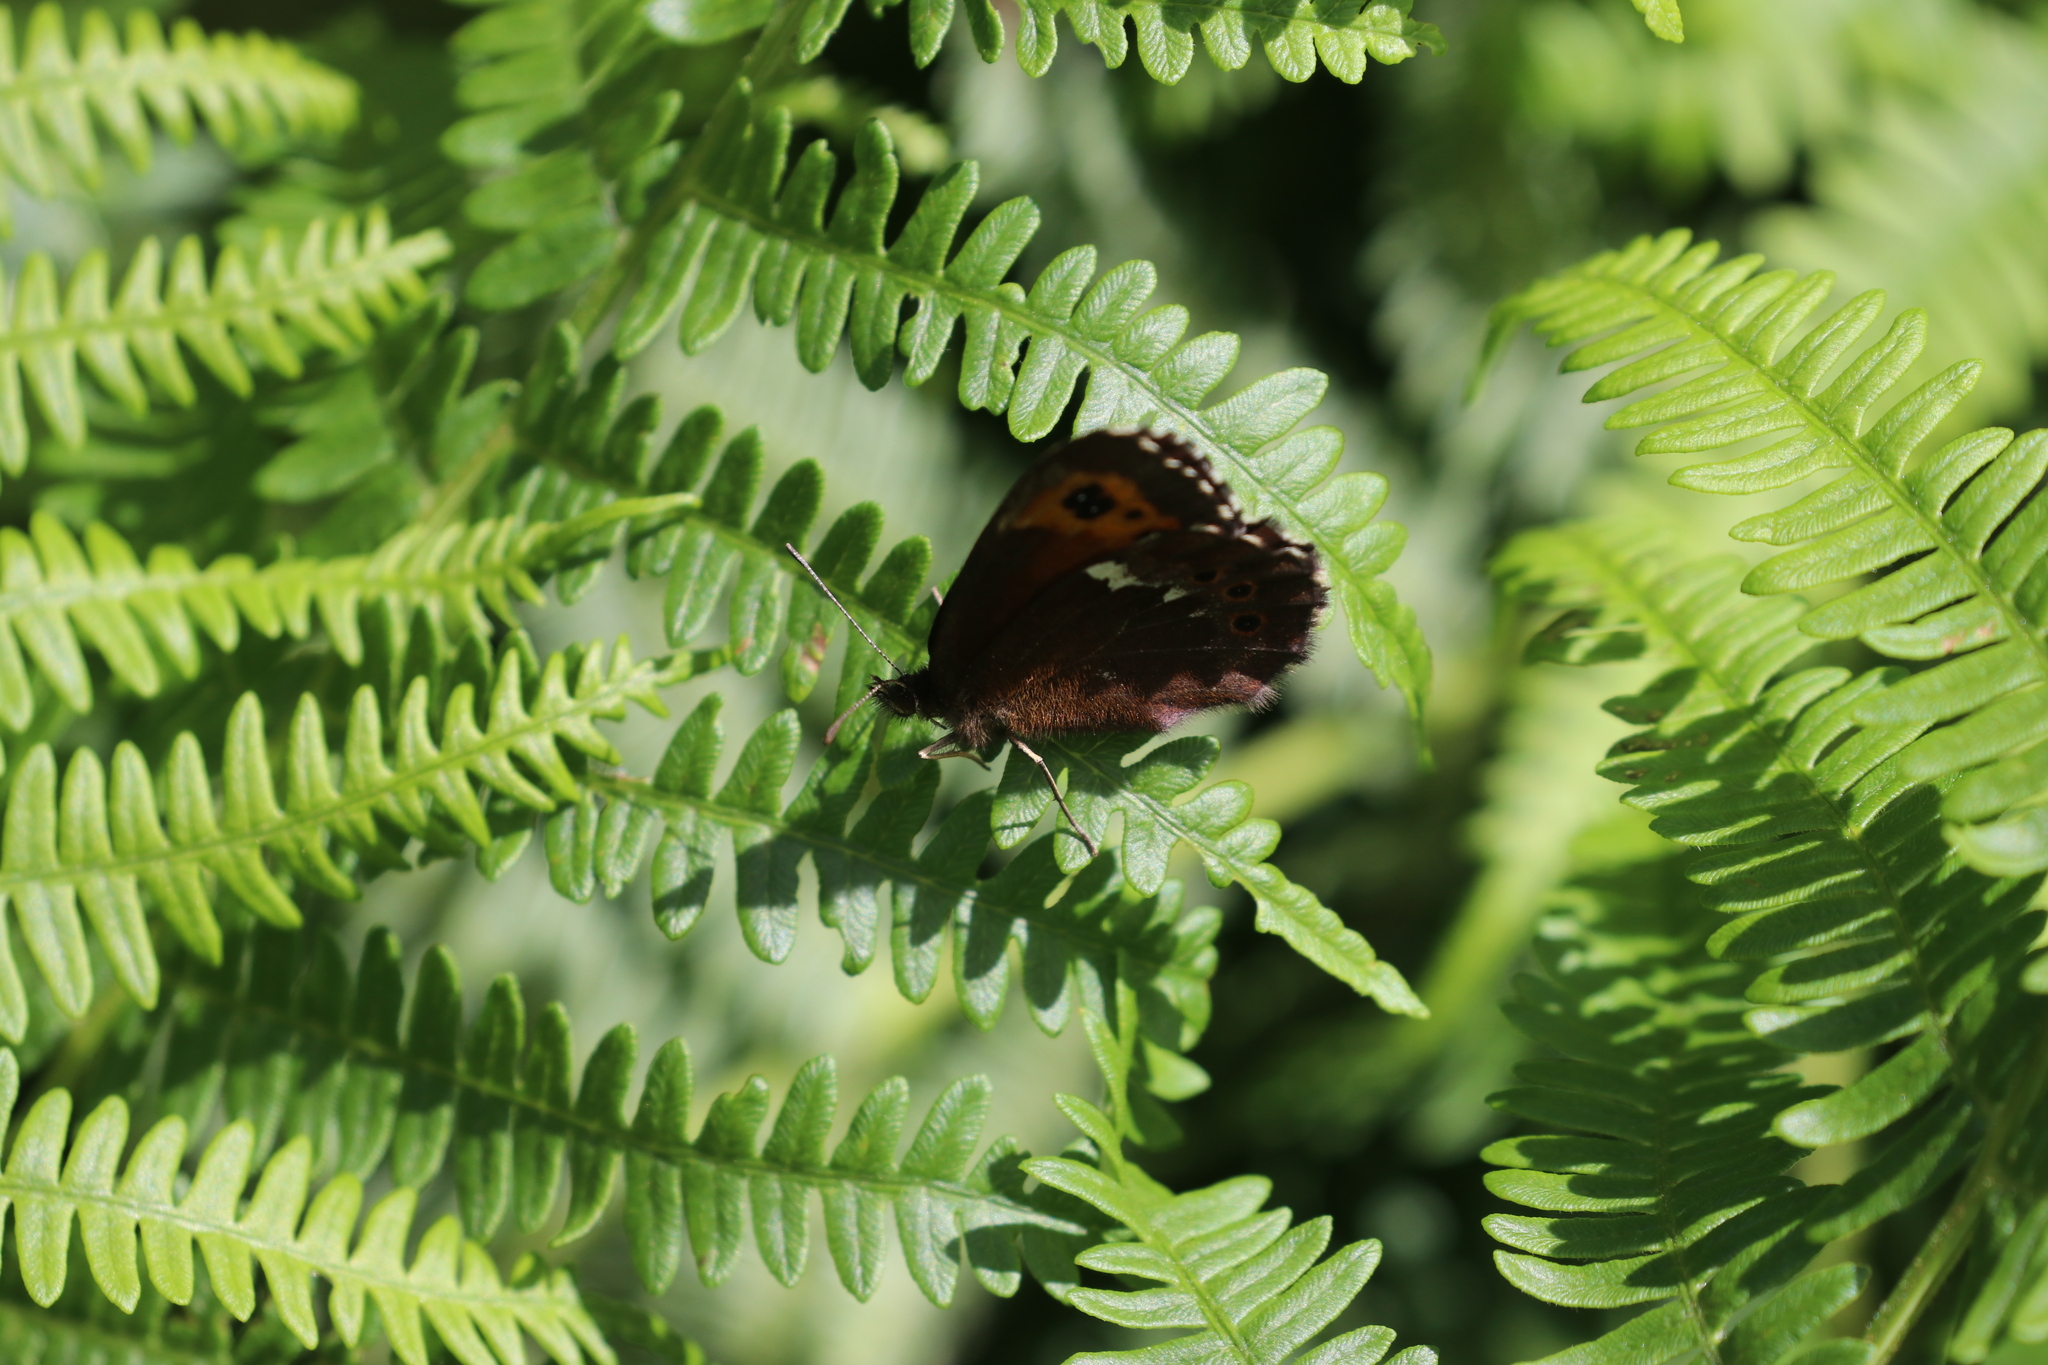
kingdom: Animalia
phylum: Arthropoda
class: Insecta
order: Lepidoptera
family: Nymphalidae
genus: Erebia
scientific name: Erebia ligea
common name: Arran brown
